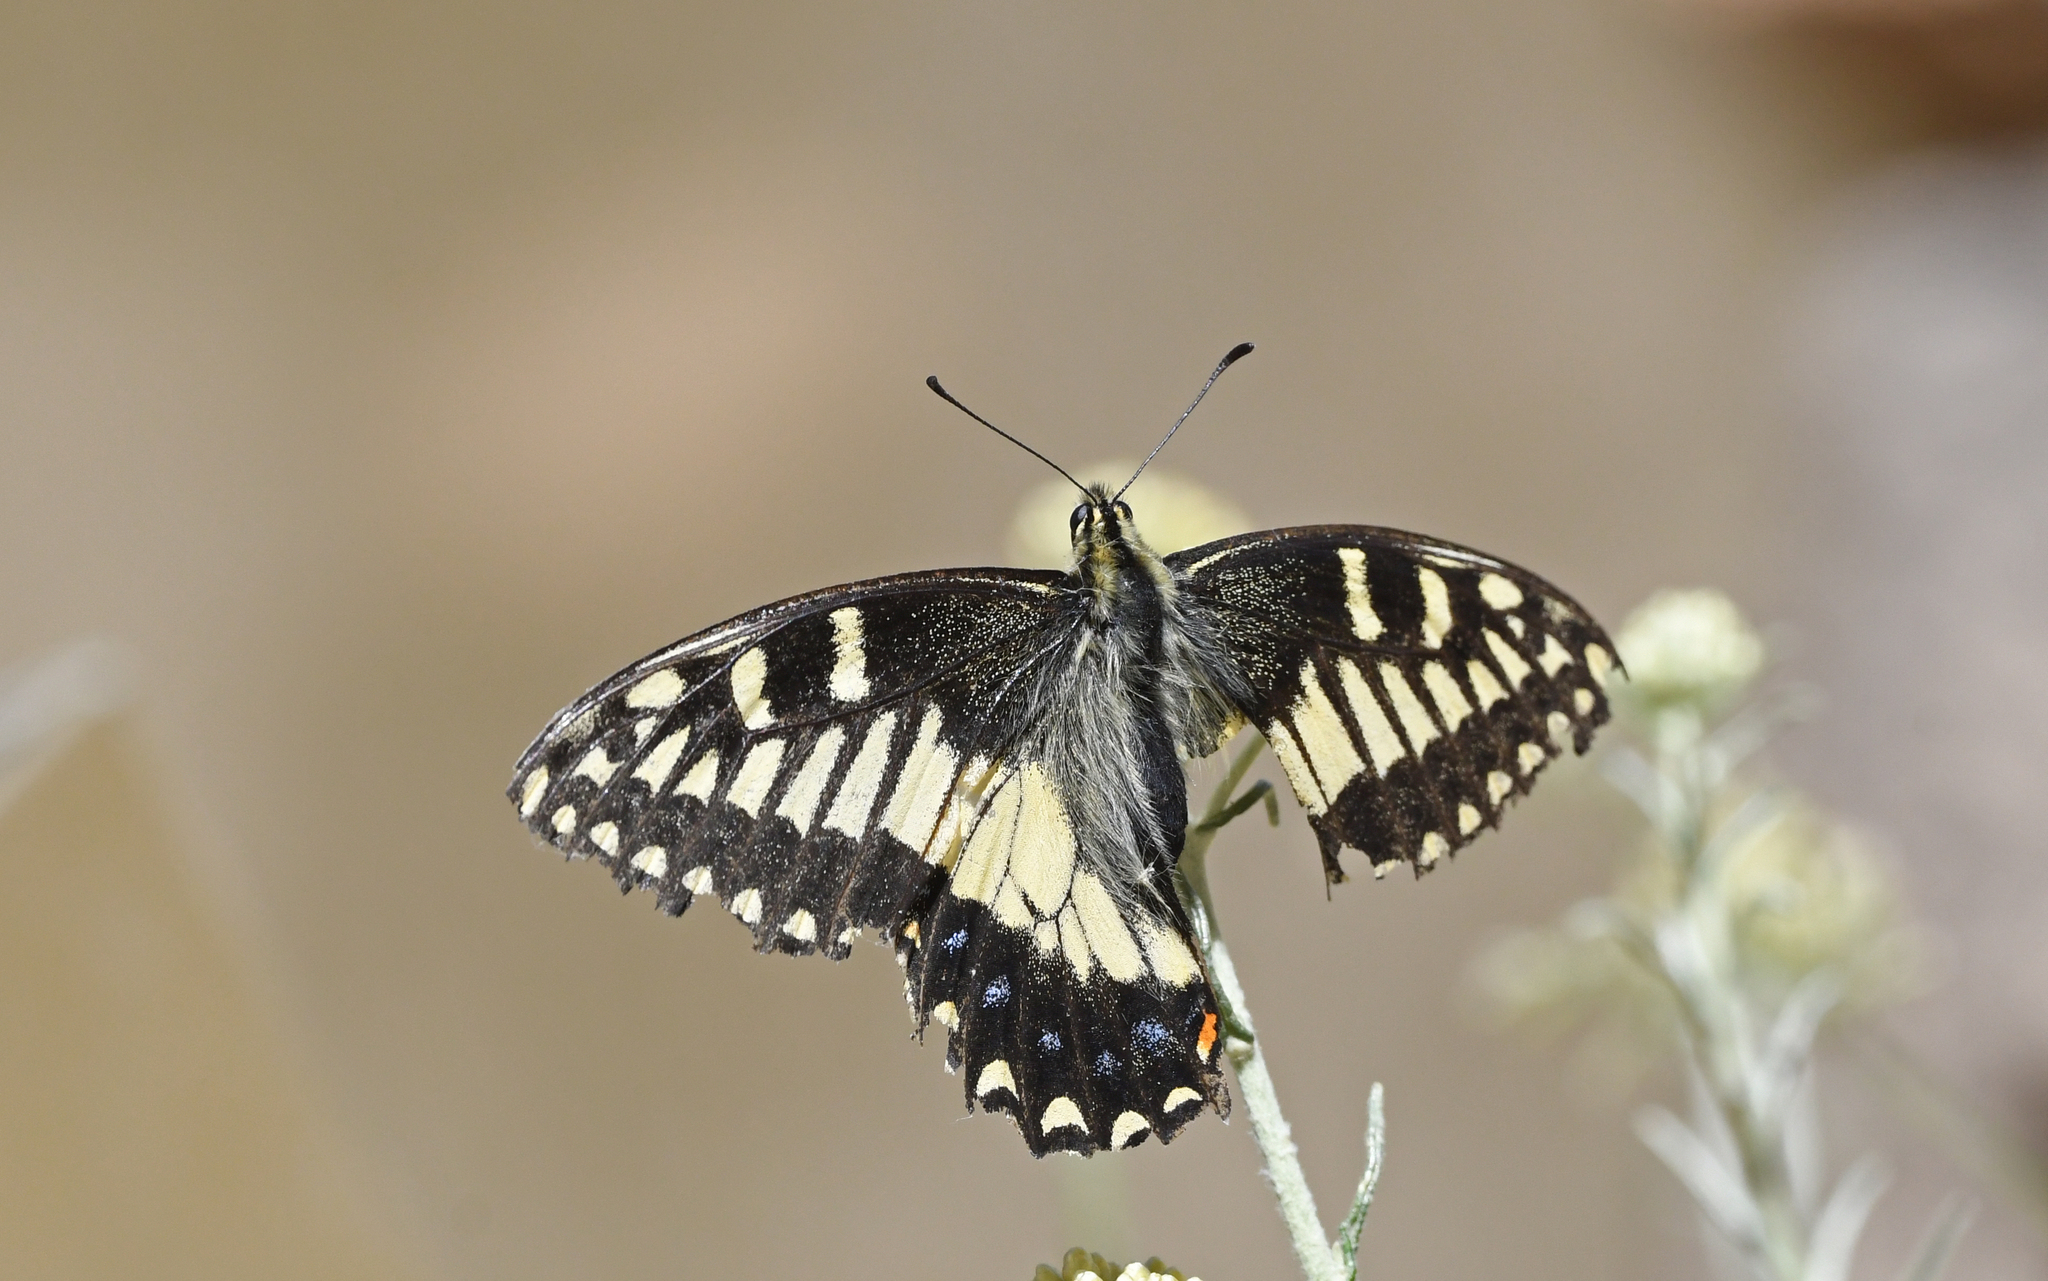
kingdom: Animalia
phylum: Arthropoda
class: Insecta
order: Lepidoptera
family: Papilionidae
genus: Papilio
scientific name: Papilio hospiton
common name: Corsican swallowtail
